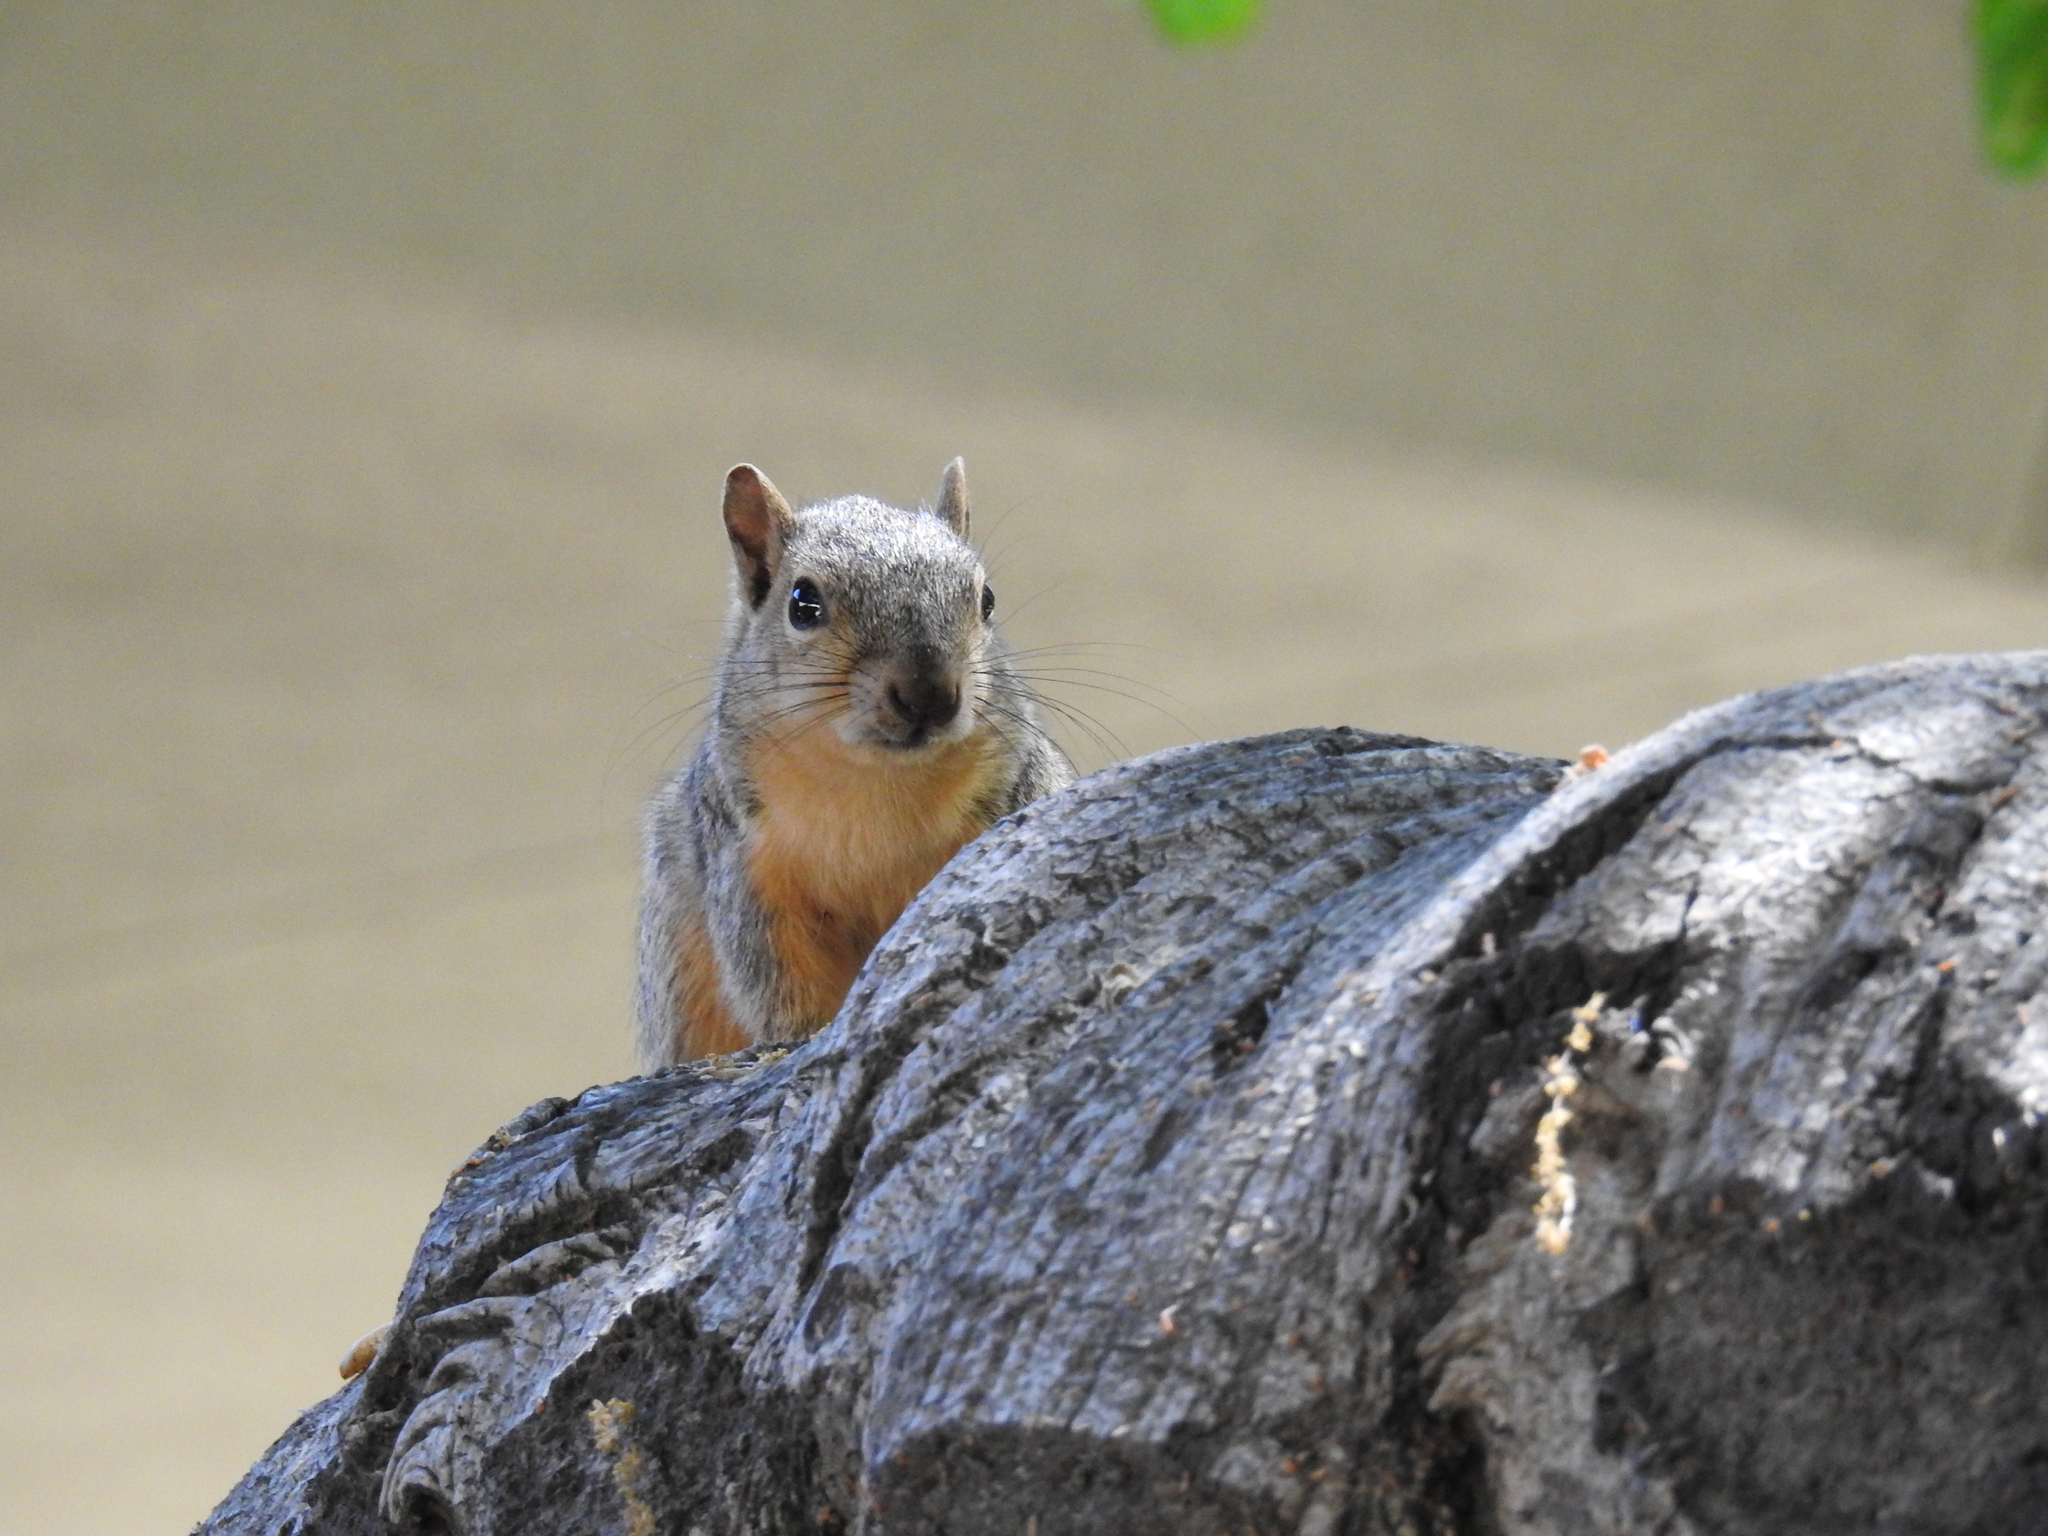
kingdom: Animalia
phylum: Chordata
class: Mammalia
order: Rodentia
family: Sciuridae
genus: Sciurus
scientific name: Sciurus niger
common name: Fox squirrel
